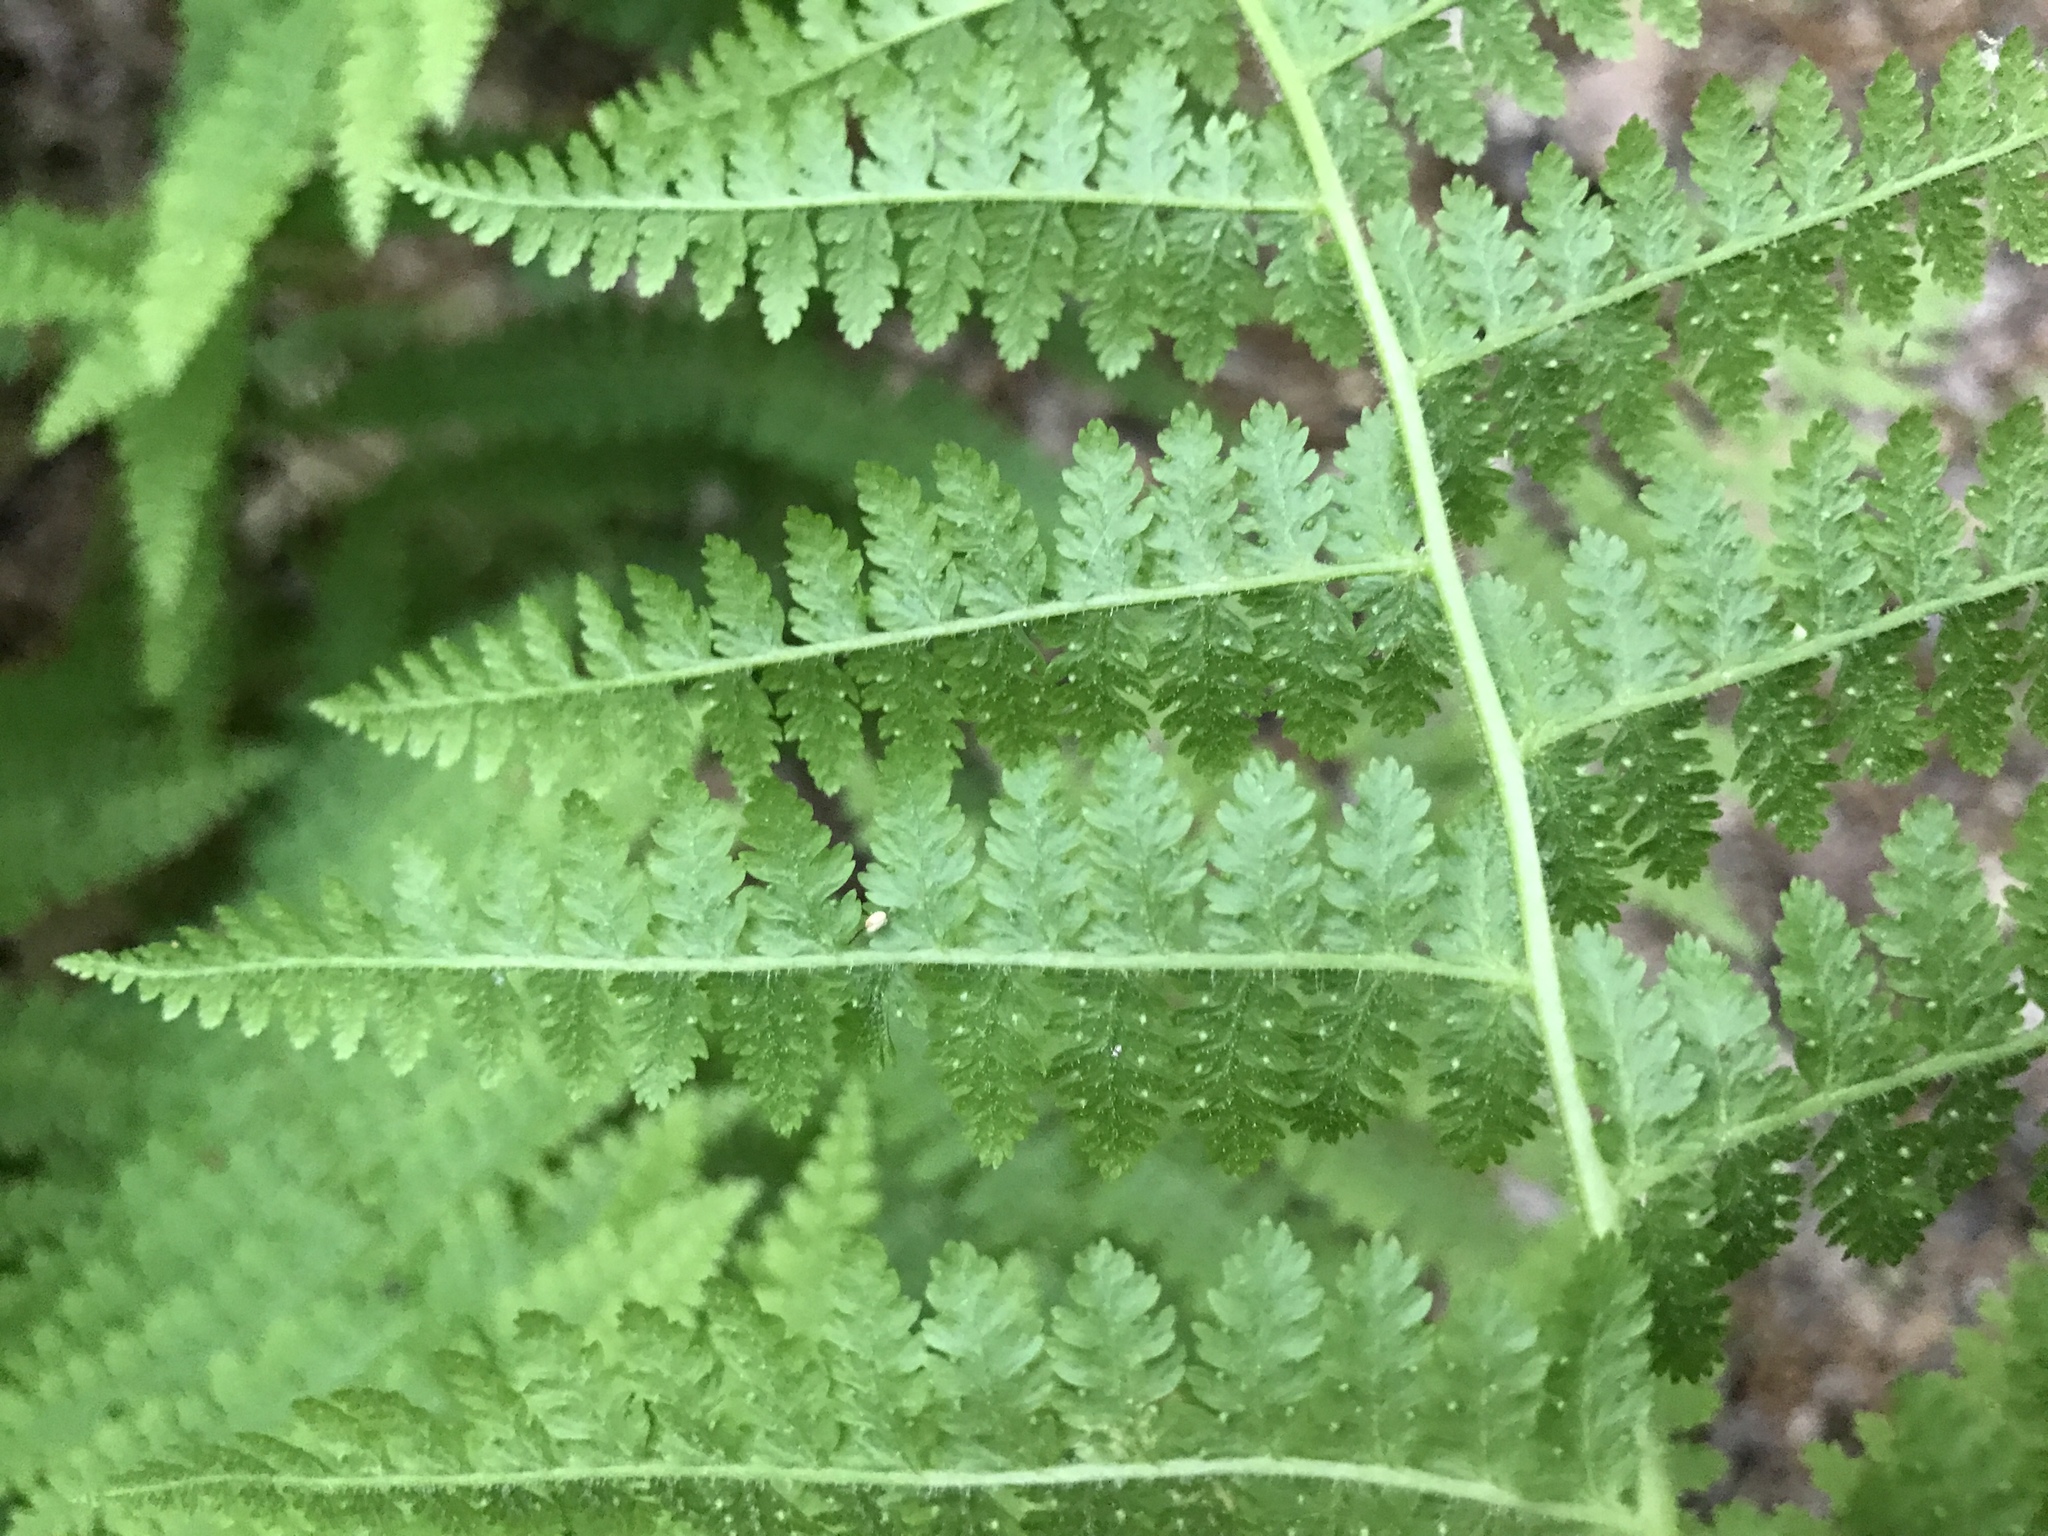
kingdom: Plantae
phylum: Tracheophyta
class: Polypodiopsida
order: Polypodiales
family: Dennstaedtiaceae
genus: Sitobolium
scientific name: Sitobolium punctilobum
